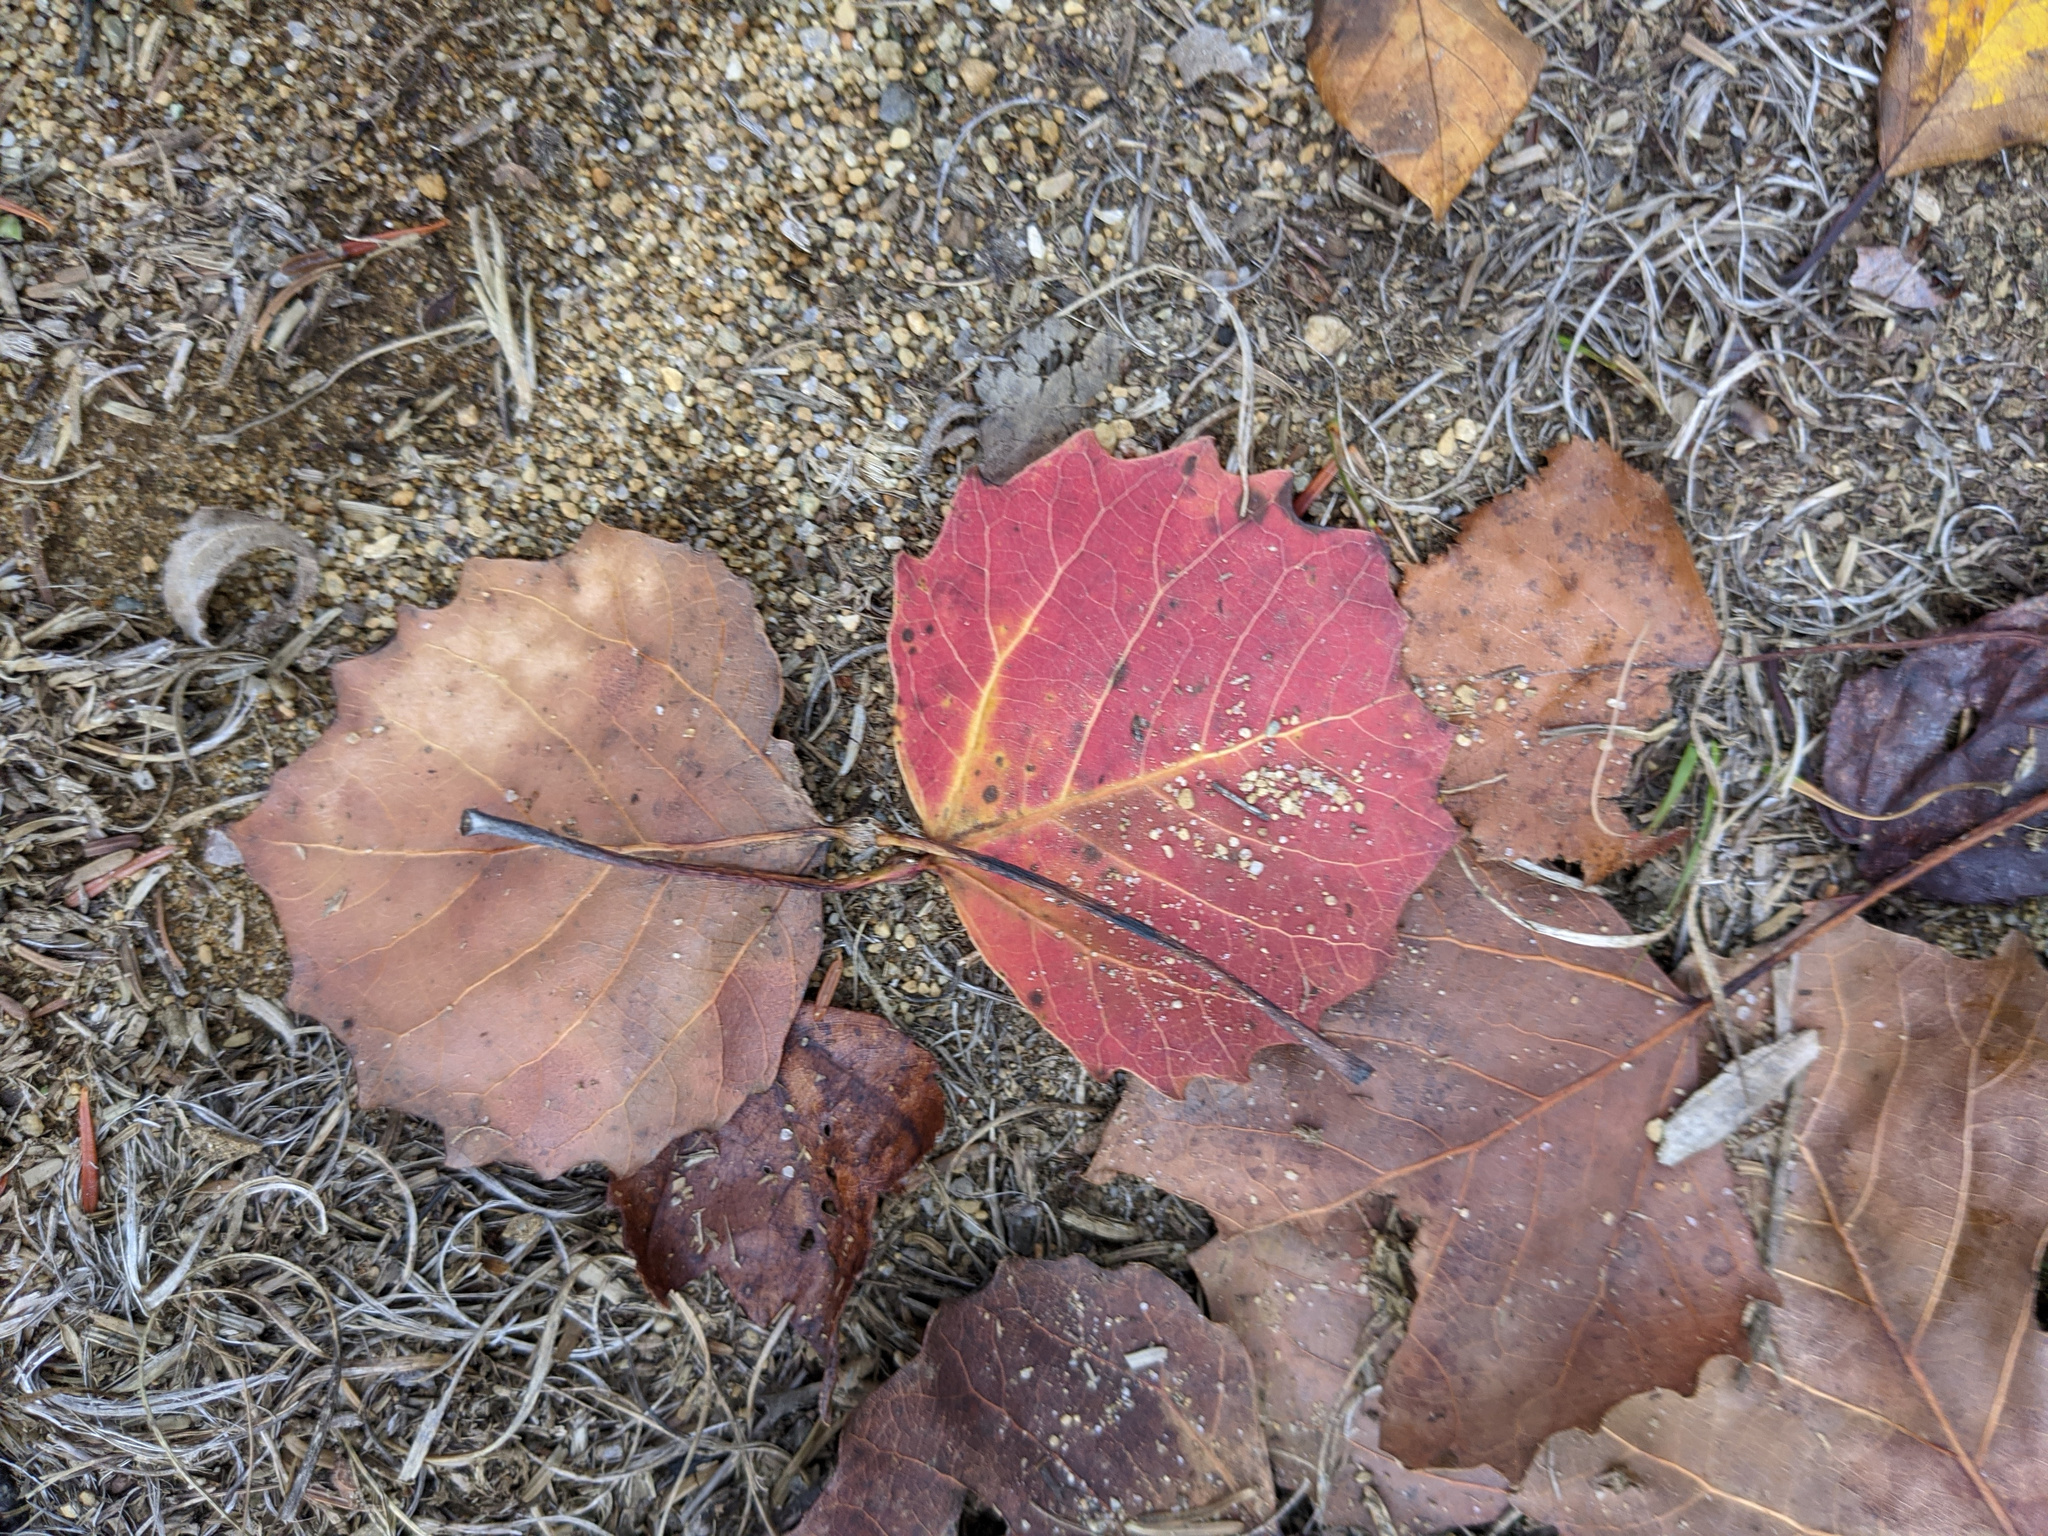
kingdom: Plantae
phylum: Tracheophyta
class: Magnoliopsida
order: Malpighiales
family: Salicaceae
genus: Populus
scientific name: Populus grandidentata
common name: Bigtooth aspen
